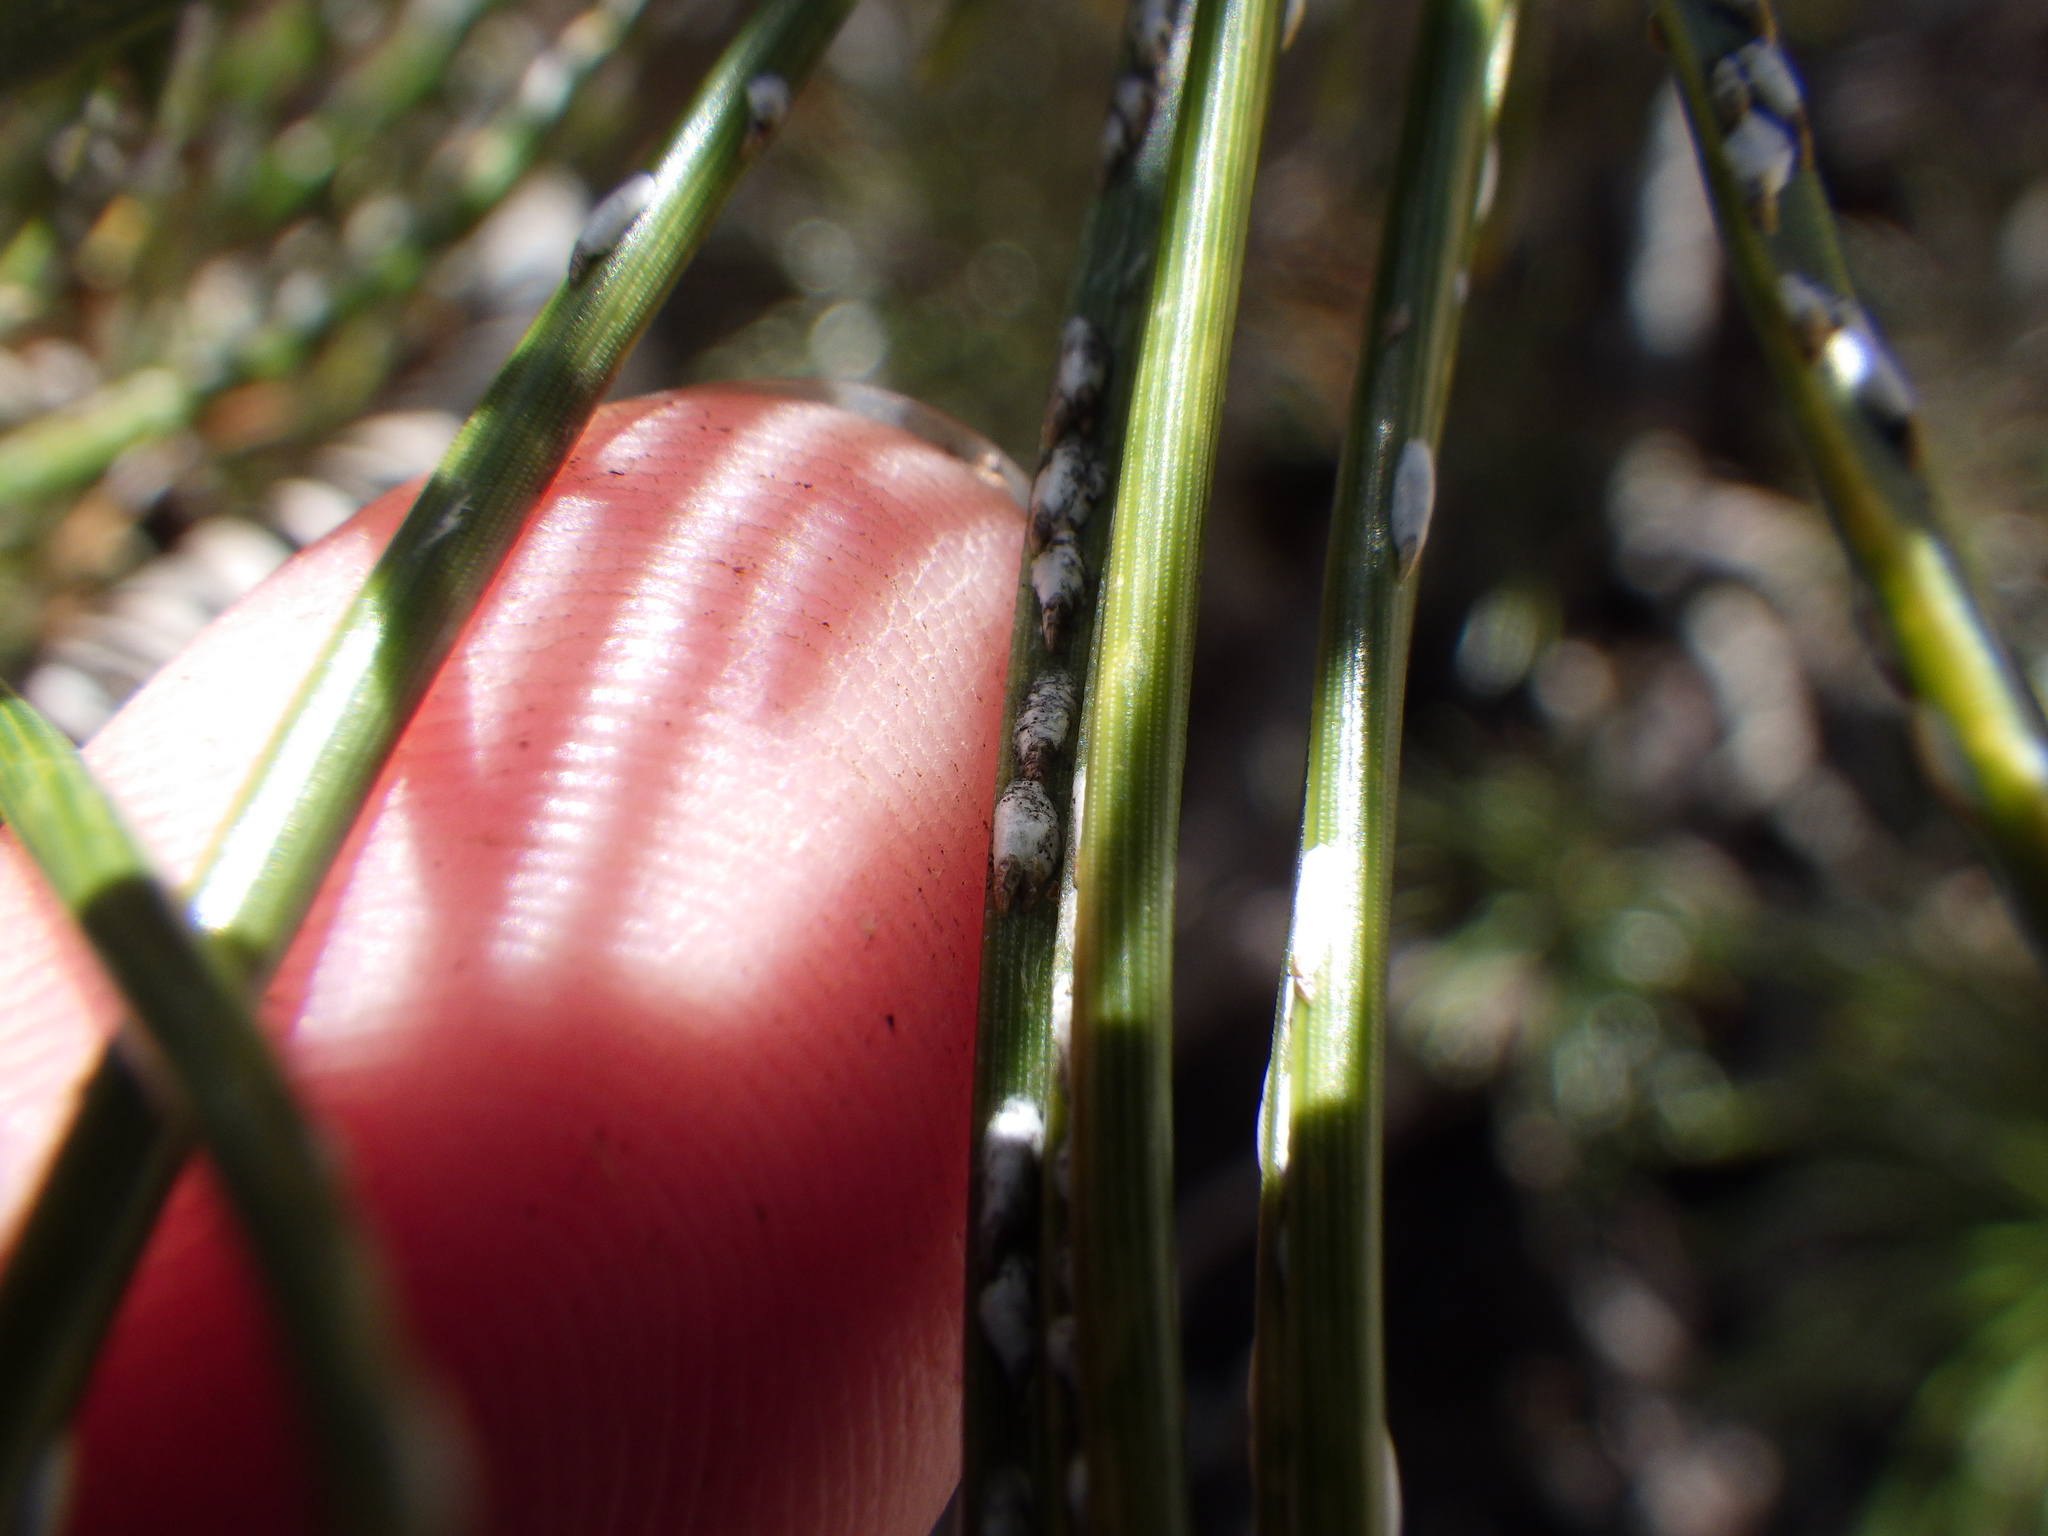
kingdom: Animalia
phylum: Arthropoda
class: Insecta
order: Hemiptera
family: Diaspididae
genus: Chionaspis
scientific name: Chionaspis pinifoliae
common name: Pine leaf scale
